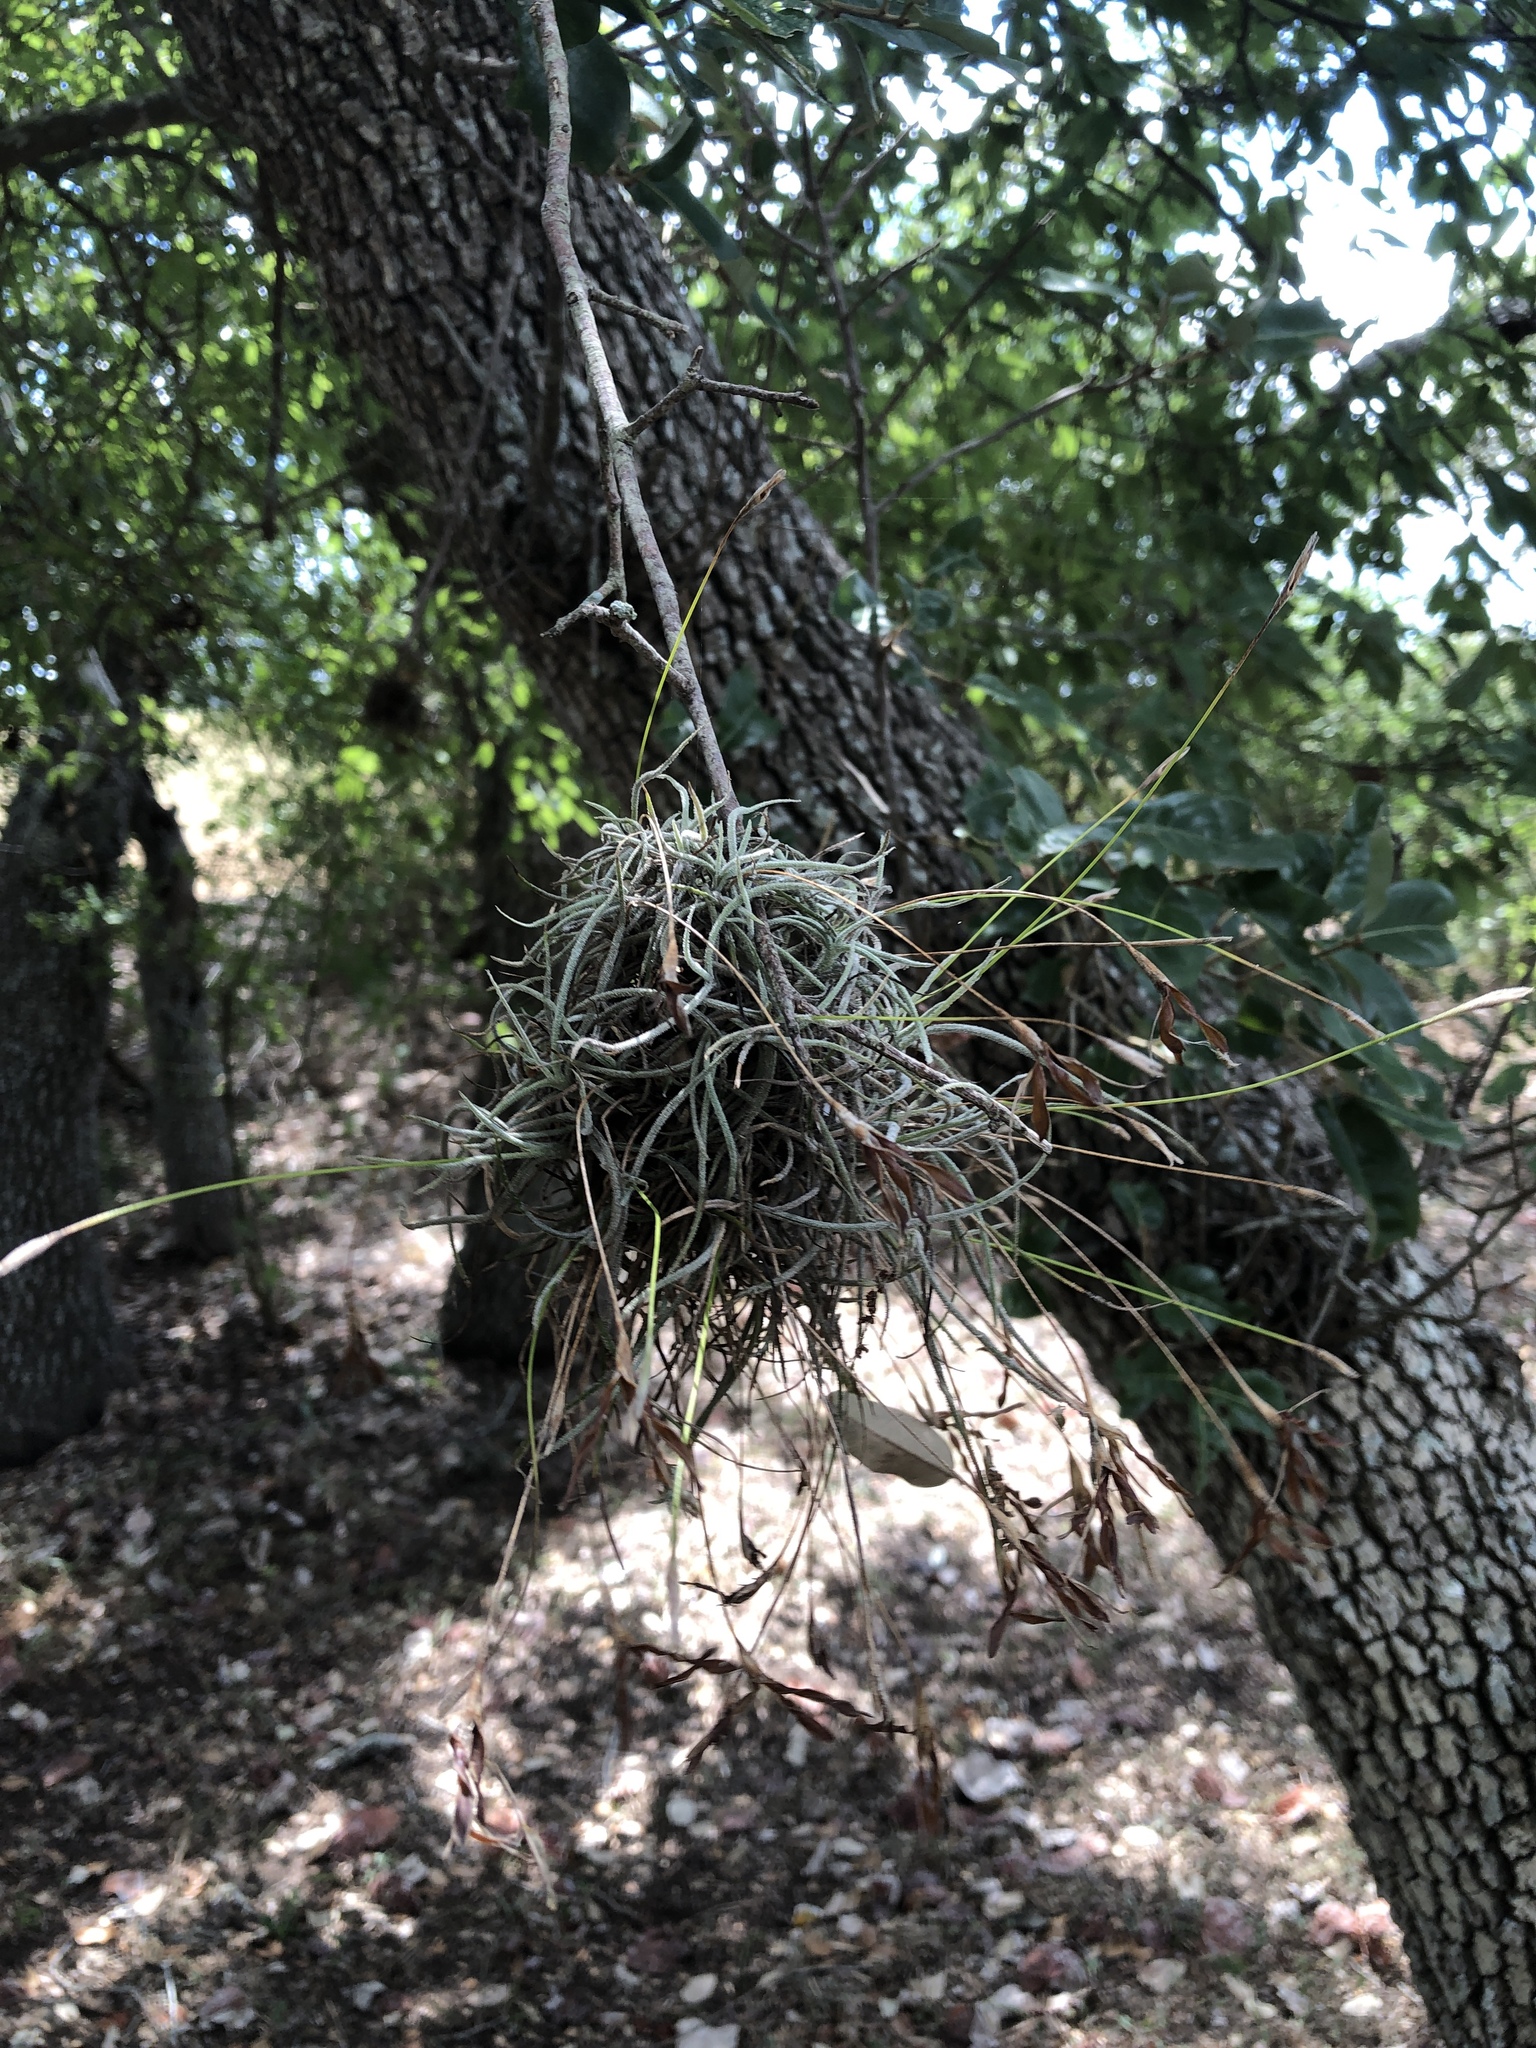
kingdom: Plantae
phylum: Tracheophyta
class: Liliopsida
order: Poales
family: Bromeliaceae
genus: Tillandsia
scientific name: Tillandsia recurvata
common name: Small ballmoss
